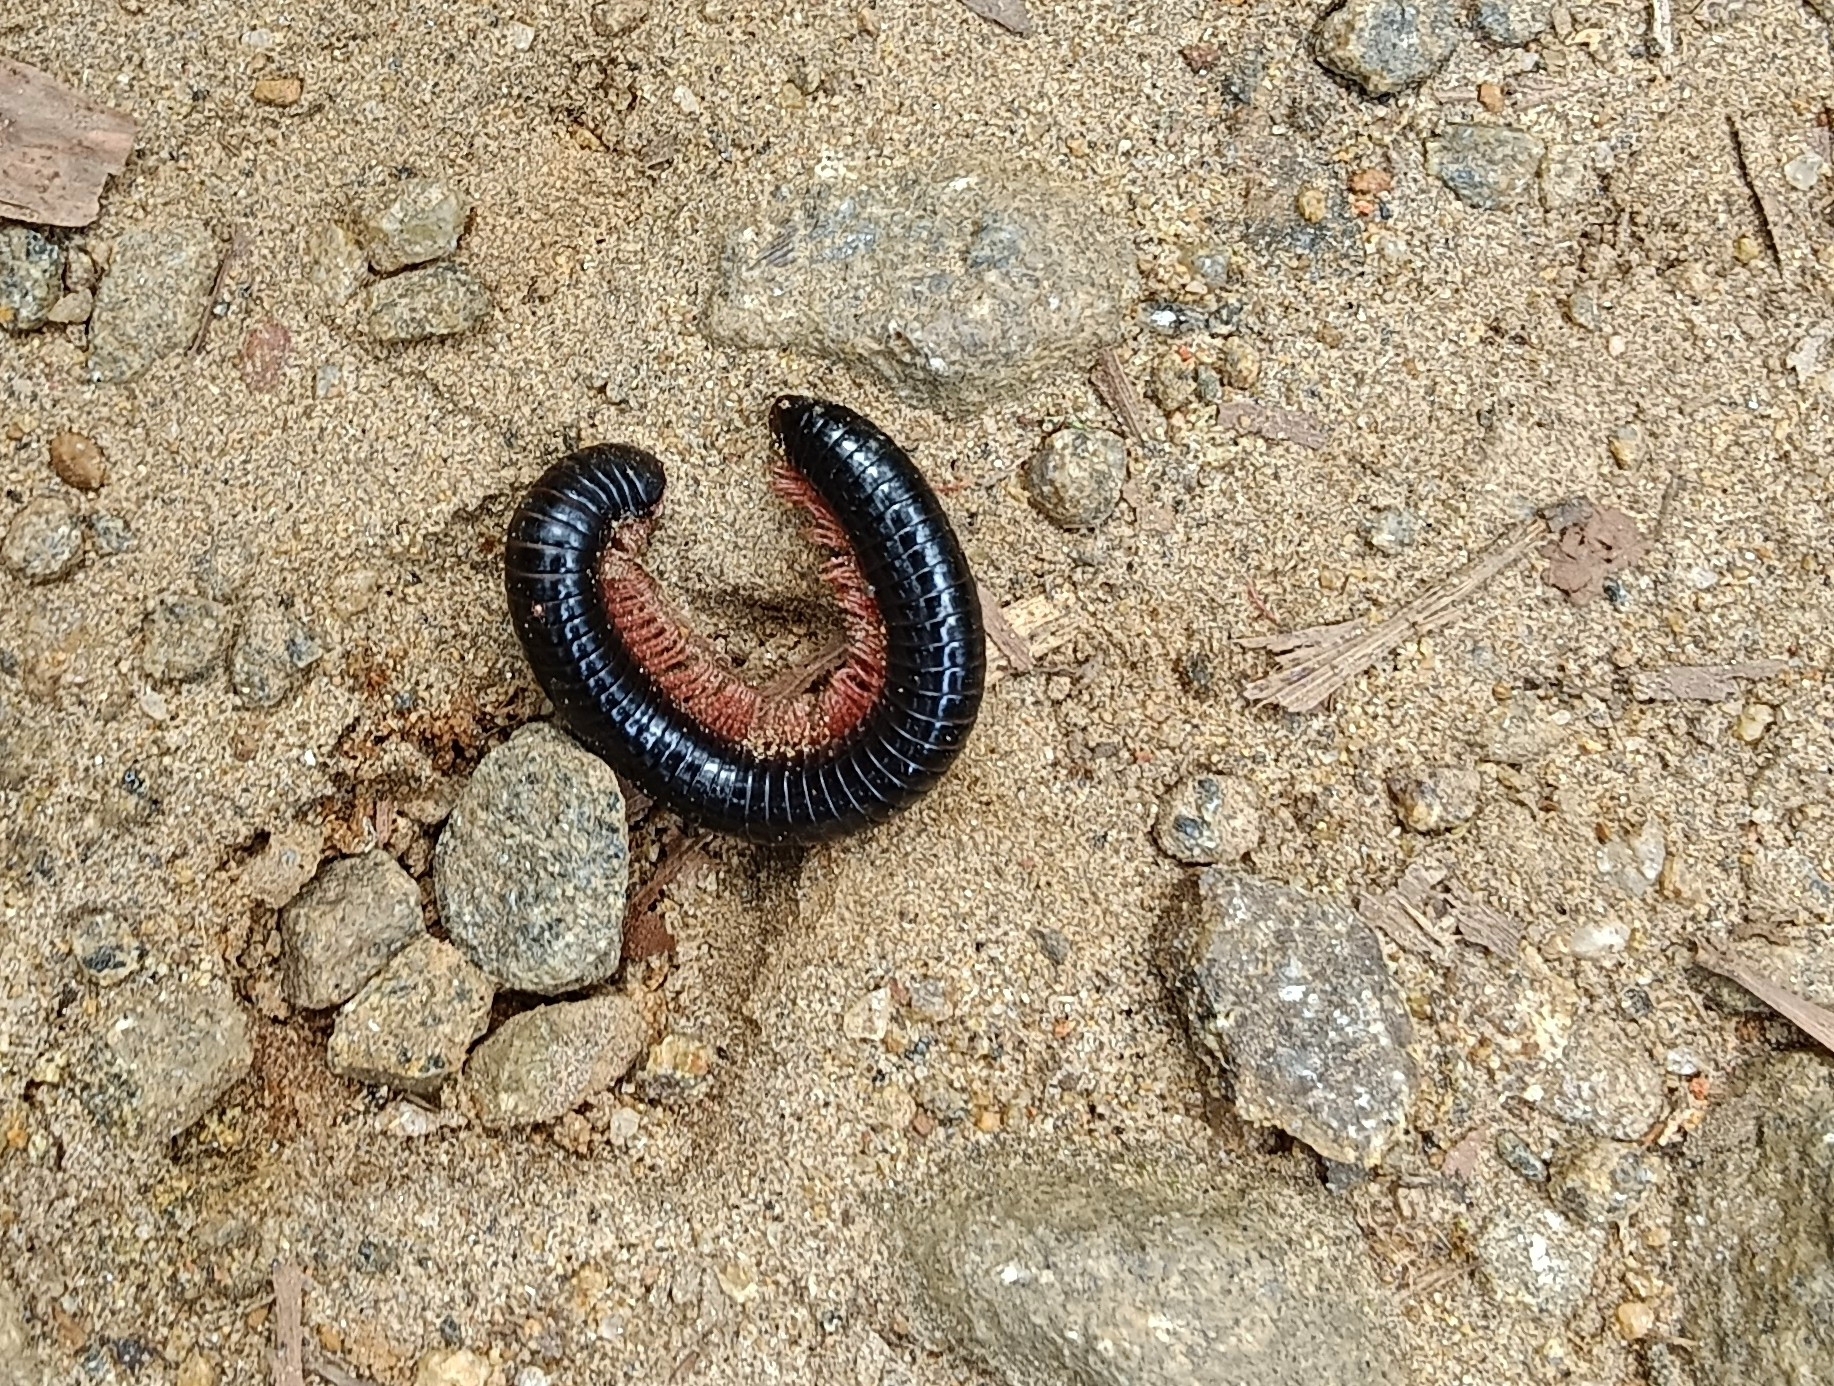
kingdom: Animalia
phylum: Arthropoda
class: Diplopoda
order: Spirostreptida
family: Harpagophoridae
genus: Phyllogonostreptus
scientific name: Phyllogonostreptus nigrolabiatus
